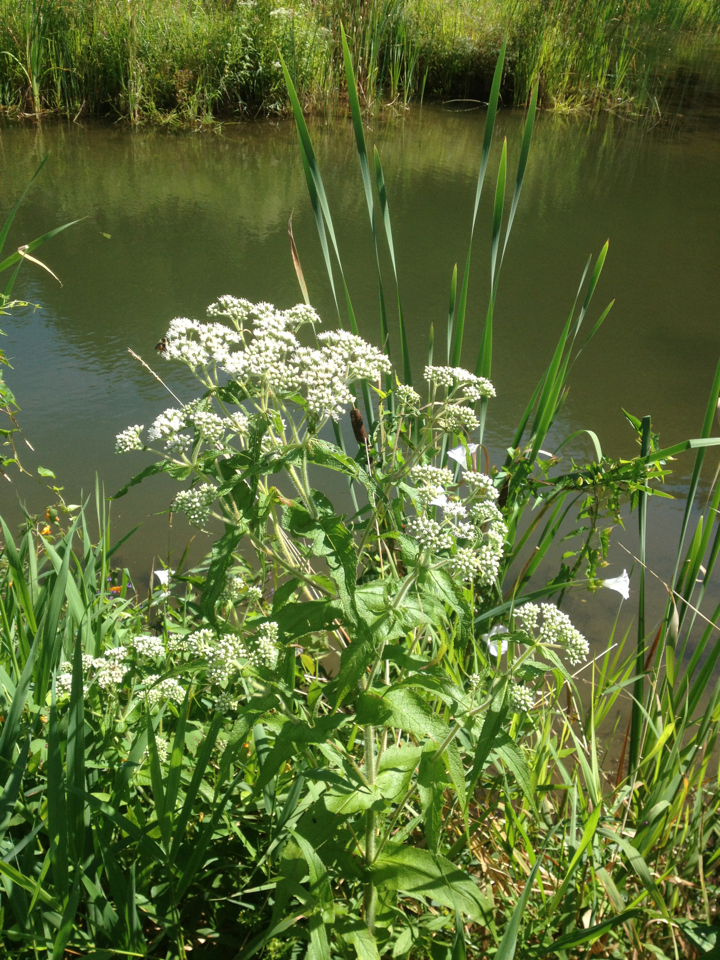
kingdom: Plantae
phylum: Tracheophyta
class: Magnoliopsida
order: Asterales
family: Asteraceae
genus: Eupatorium
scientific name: Eupatorium perfoliatum
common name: Boneset
